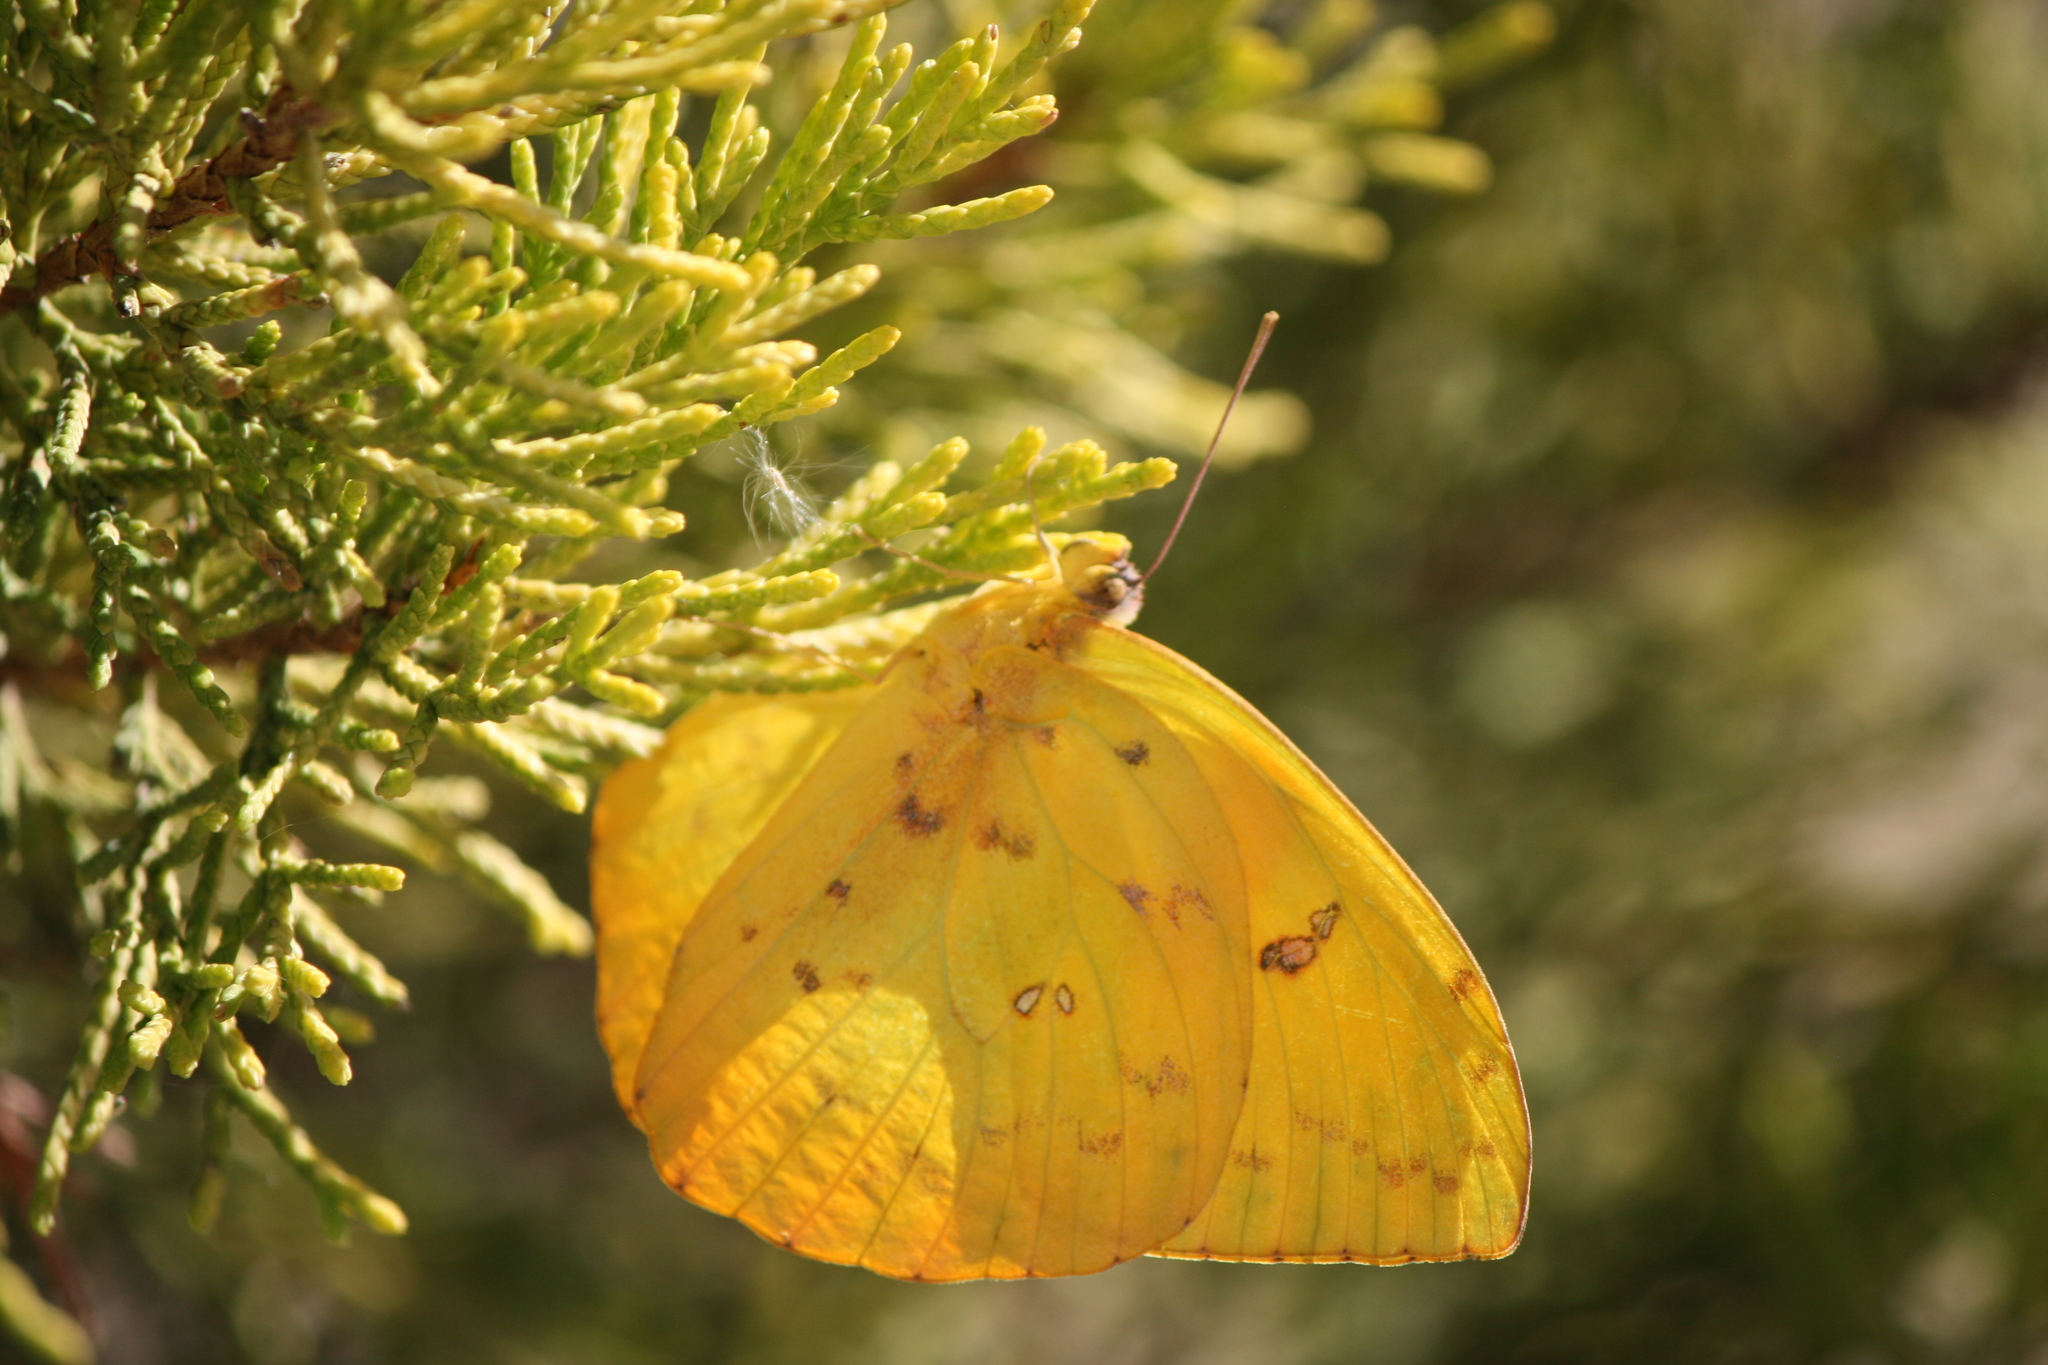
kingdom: Animalia
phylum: Arthropoda
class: Insecta
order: Lepidoptera
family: Pieridae
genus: Phoebis
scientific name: Phoebis philea
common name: Orange-barred giant sulphur
